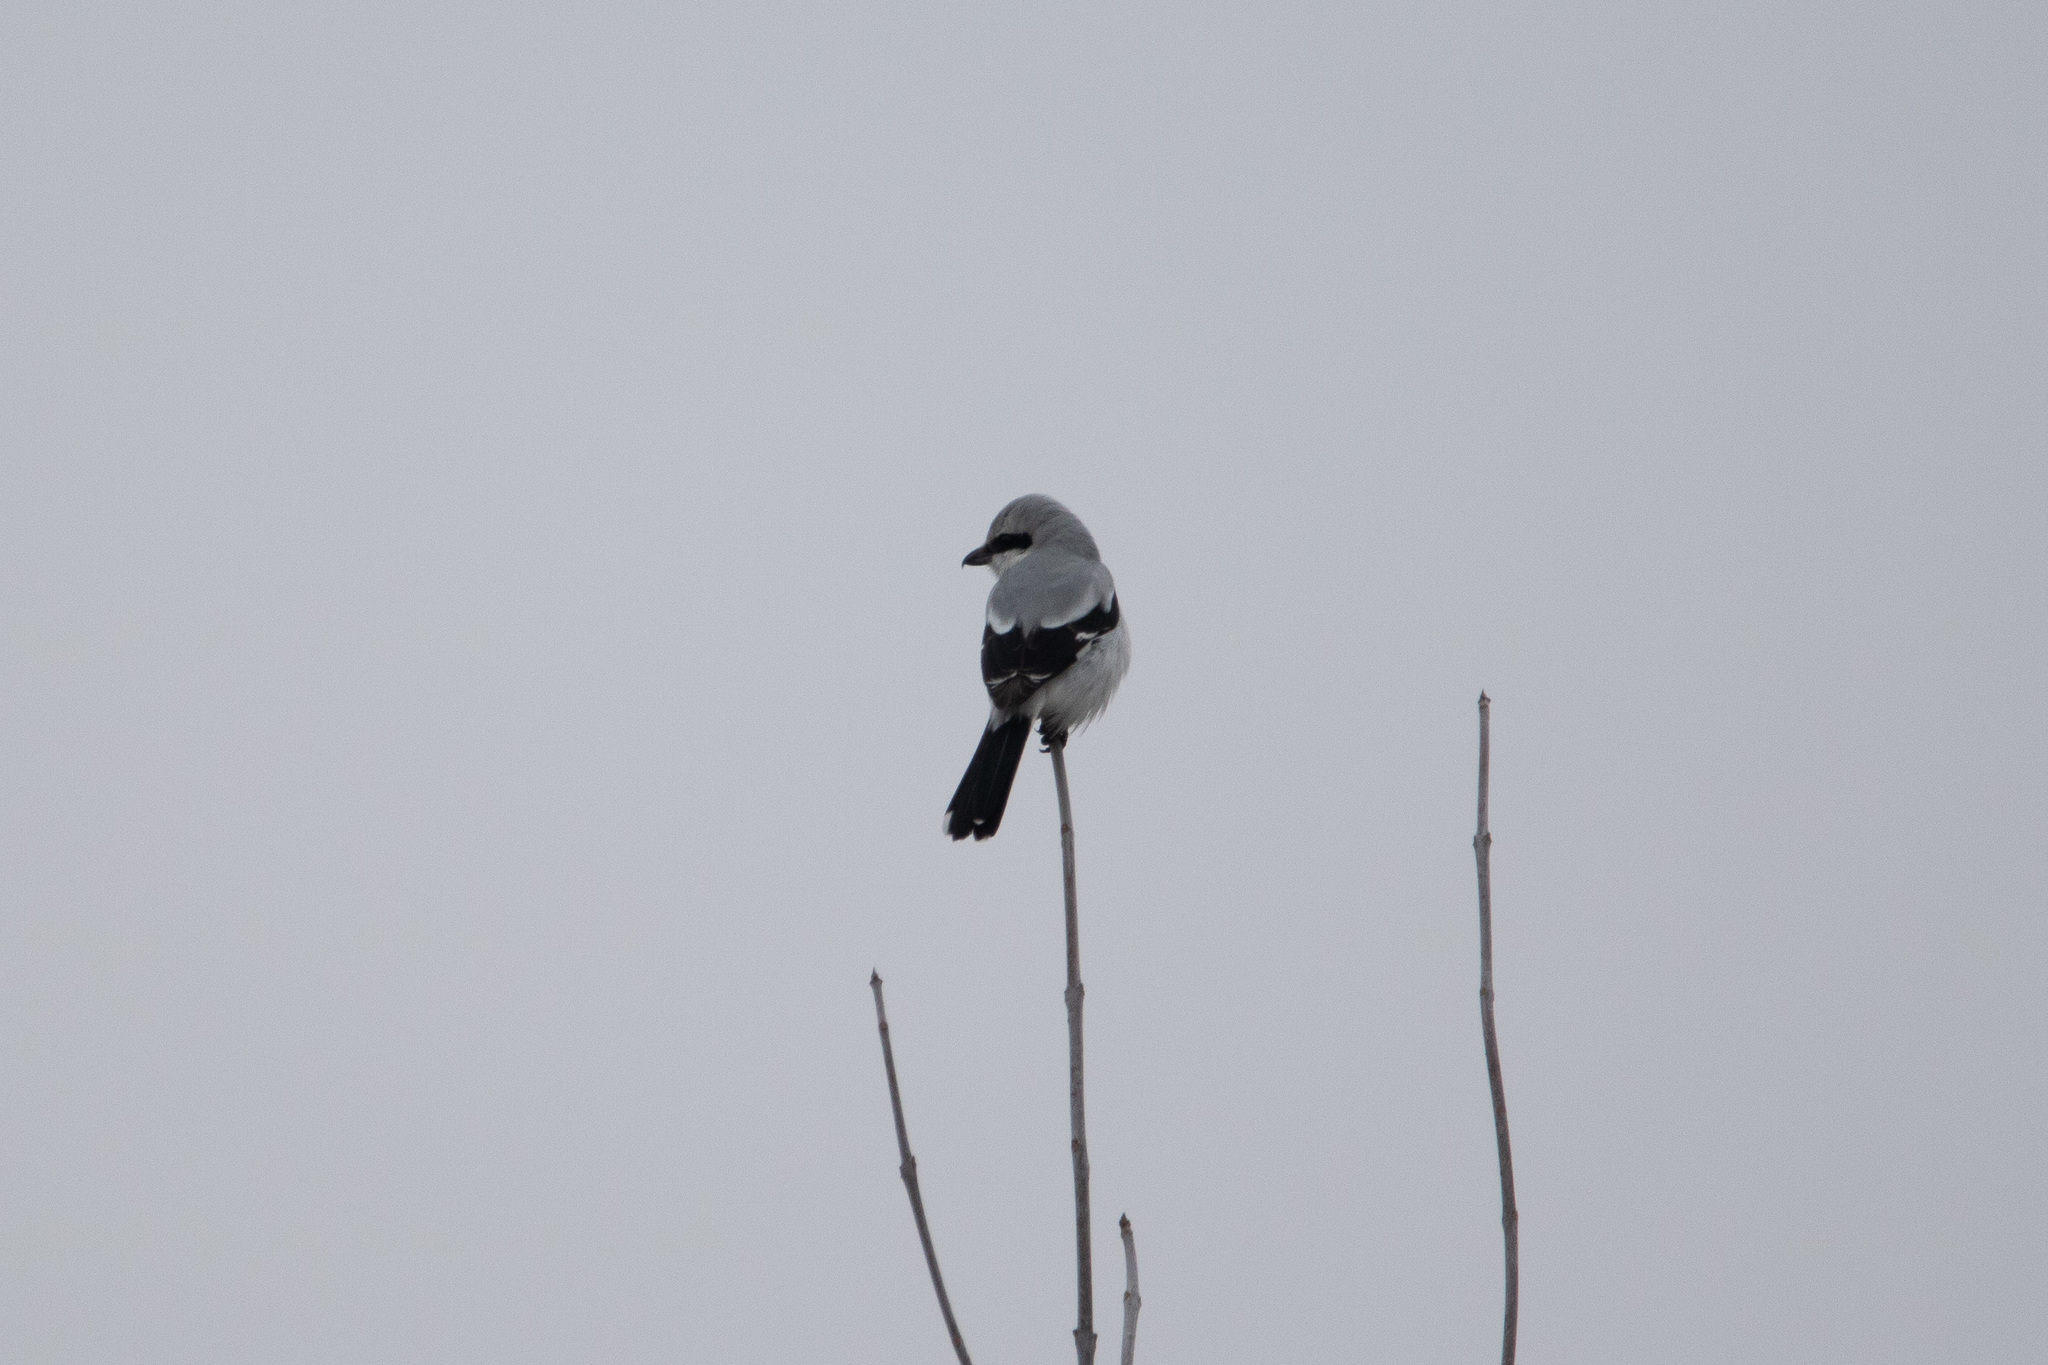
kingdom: Animalia
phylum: Chordata
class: Aves
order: Passeriformes
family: Laniidae
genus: Lanius
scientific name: Lanius excubitor
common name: Great grey shrike
